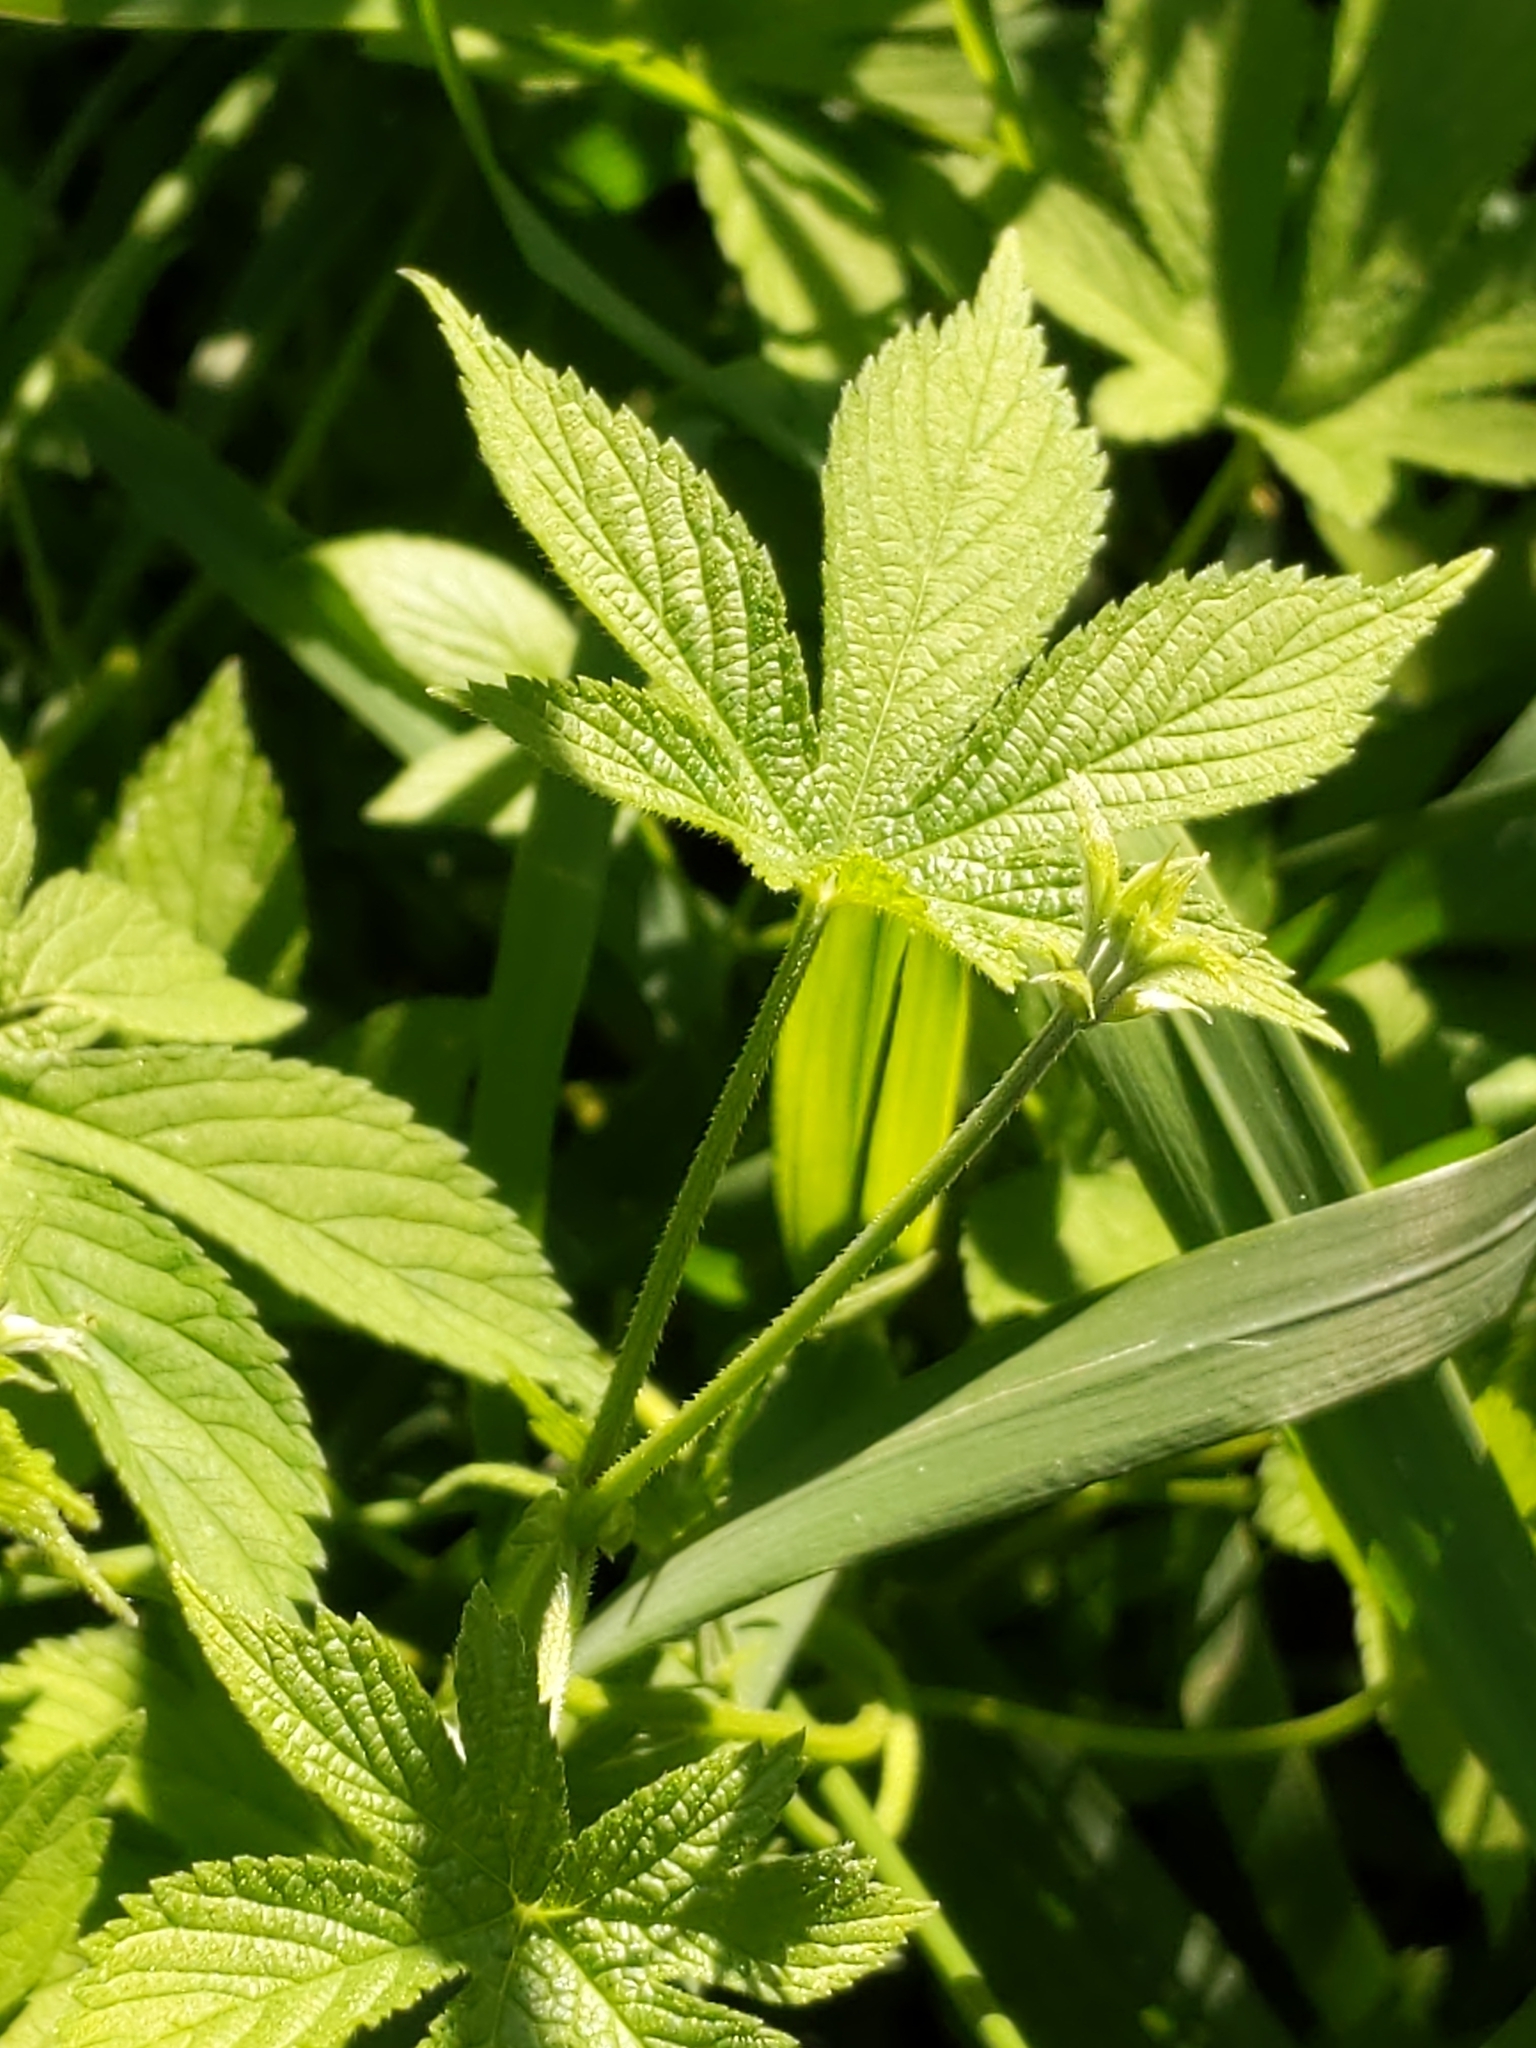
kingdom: Plantae
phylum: Tracheophyta
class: Magnoliopsida
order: Rosales
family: Cannabaceae
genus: Humulus
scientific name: Humulus scandens
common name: Japanese hop
